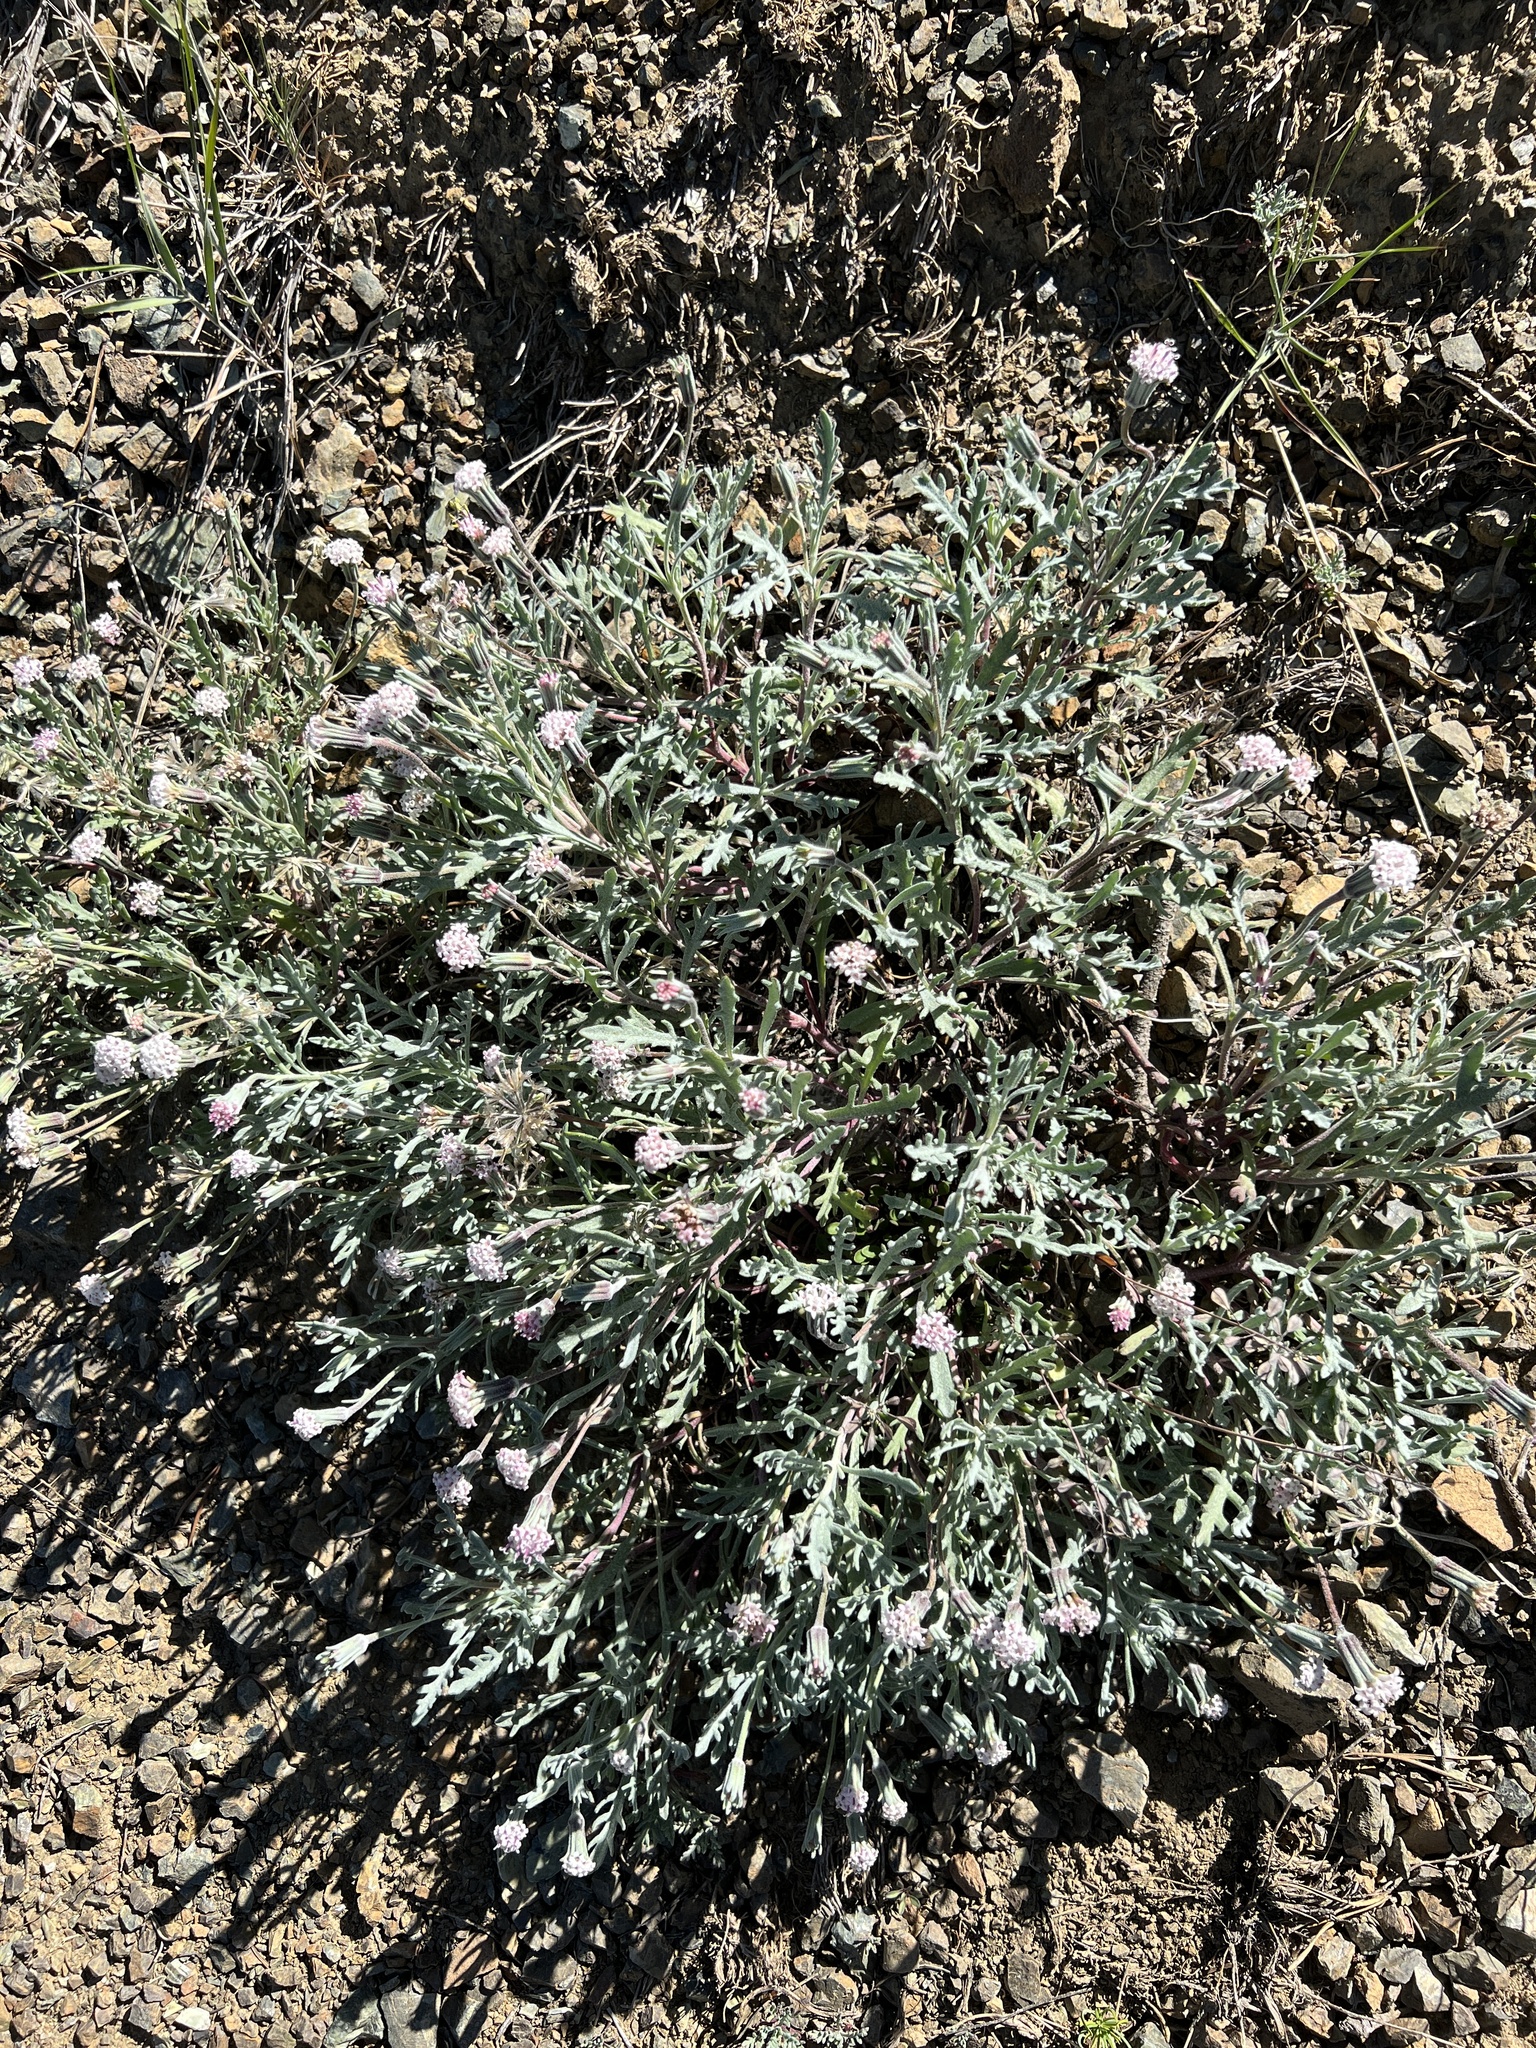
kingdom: Plantae
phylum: Tracheophyta
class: Magnoliopsida
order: Asterales
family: Asteraceae
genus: Chaenactis
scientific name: Chaenactis thompsonii
